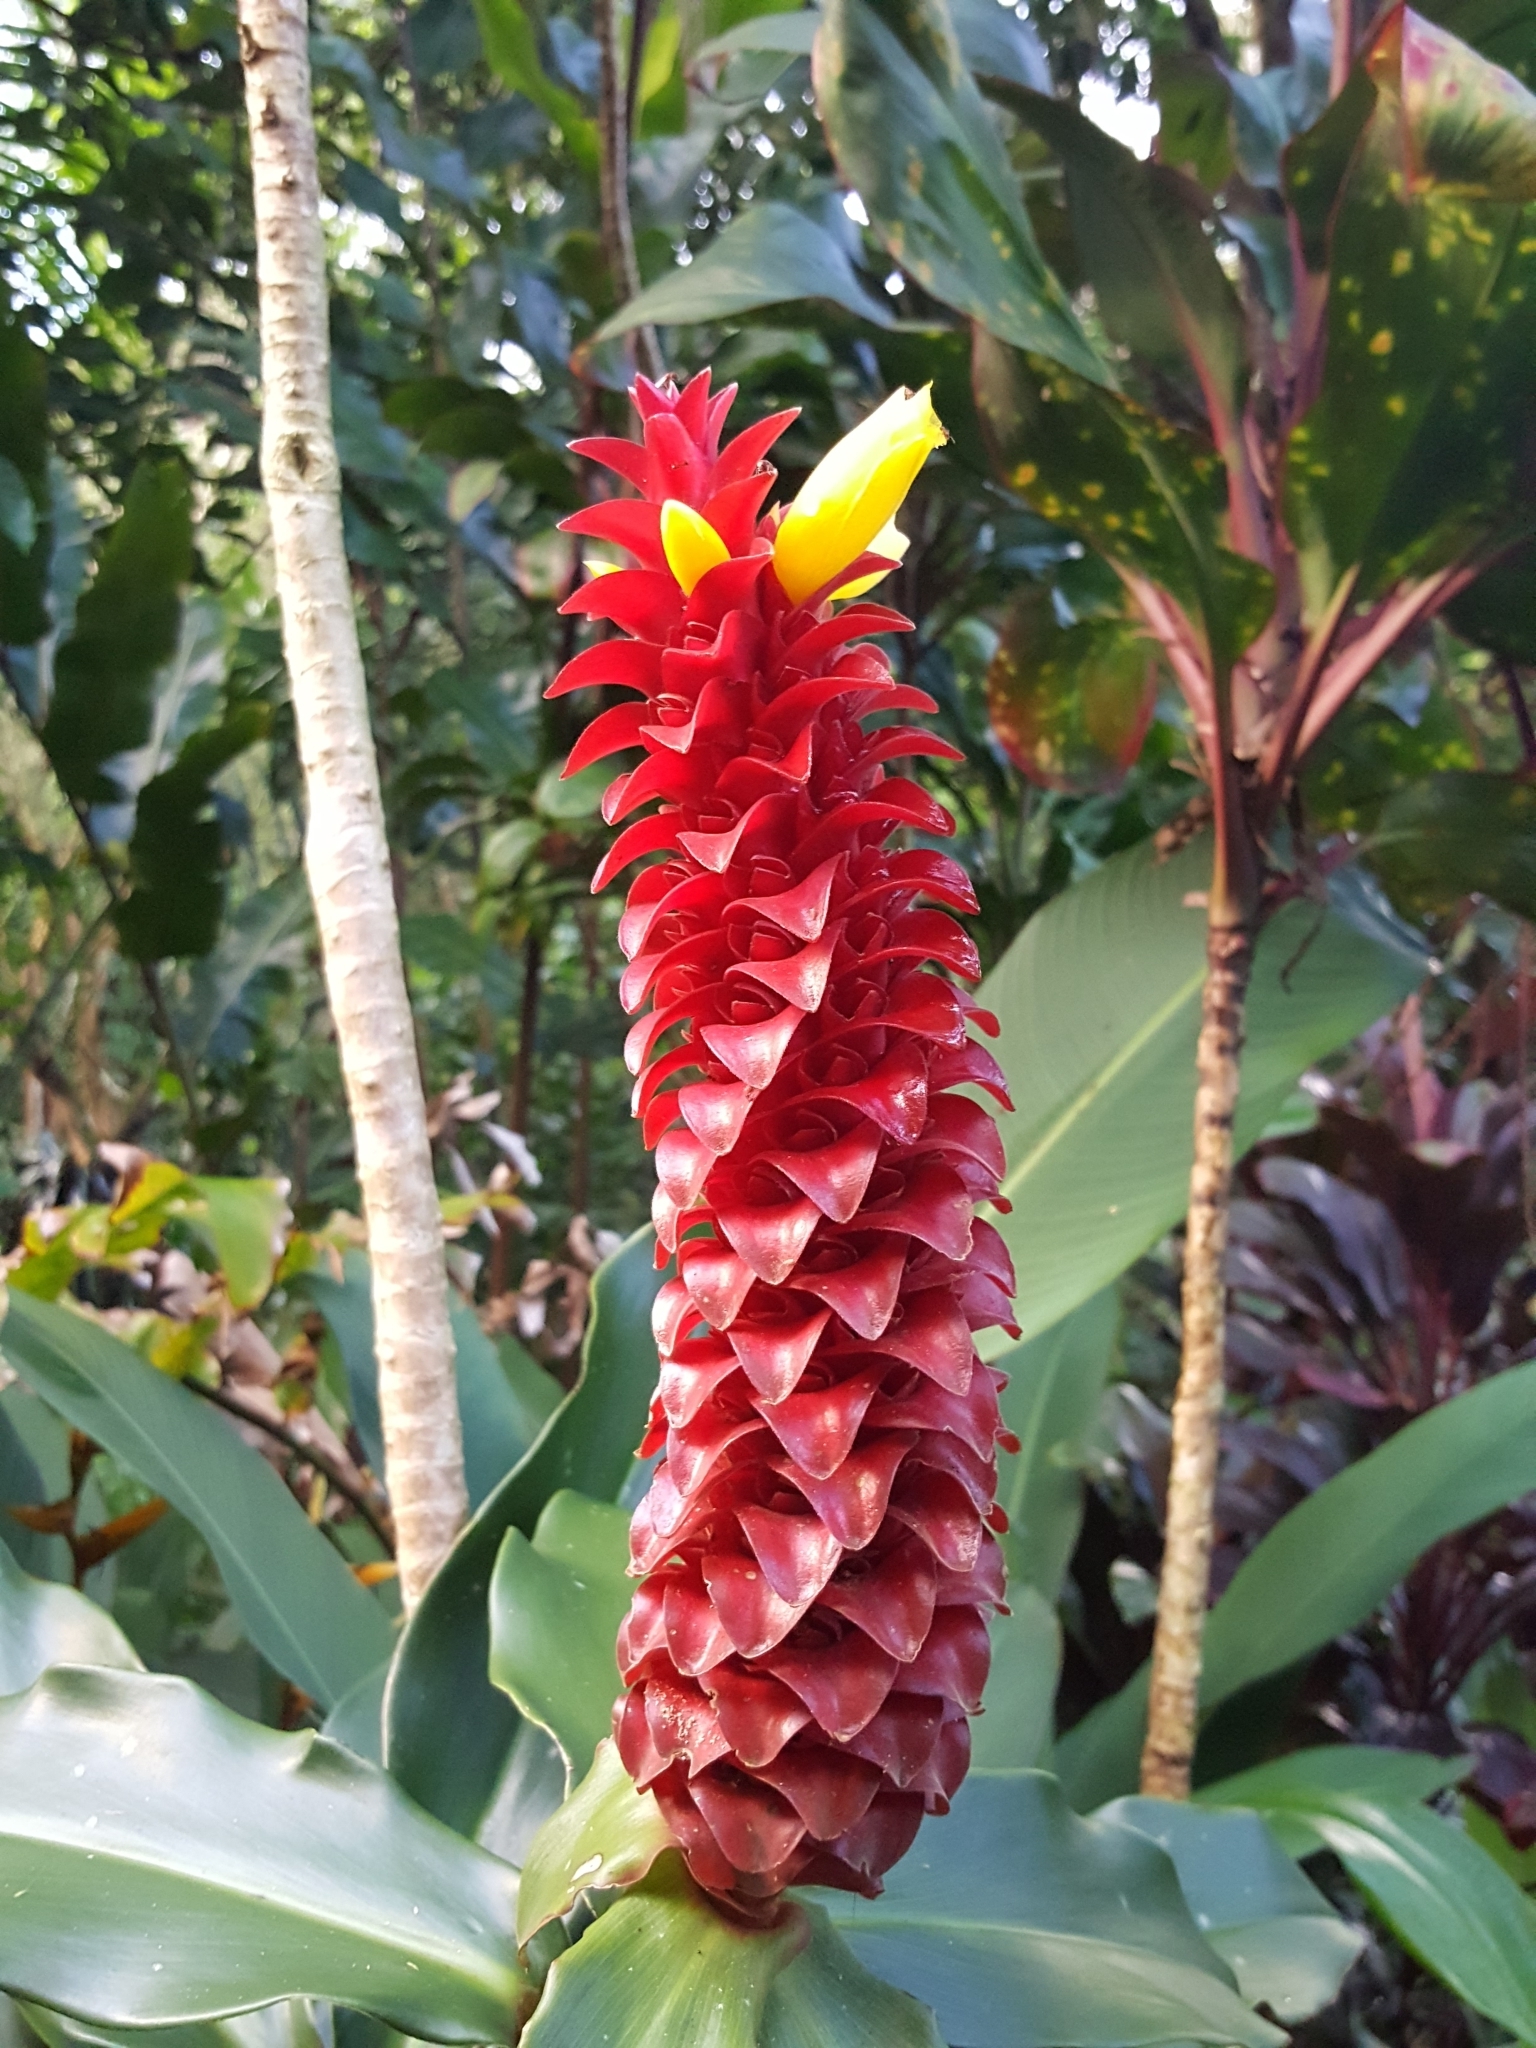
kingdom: Plantae
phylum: Tracheophyta
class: Liliopsida
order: Zingiberales
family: Costaceae
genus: Costus
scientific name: Costus comosus
